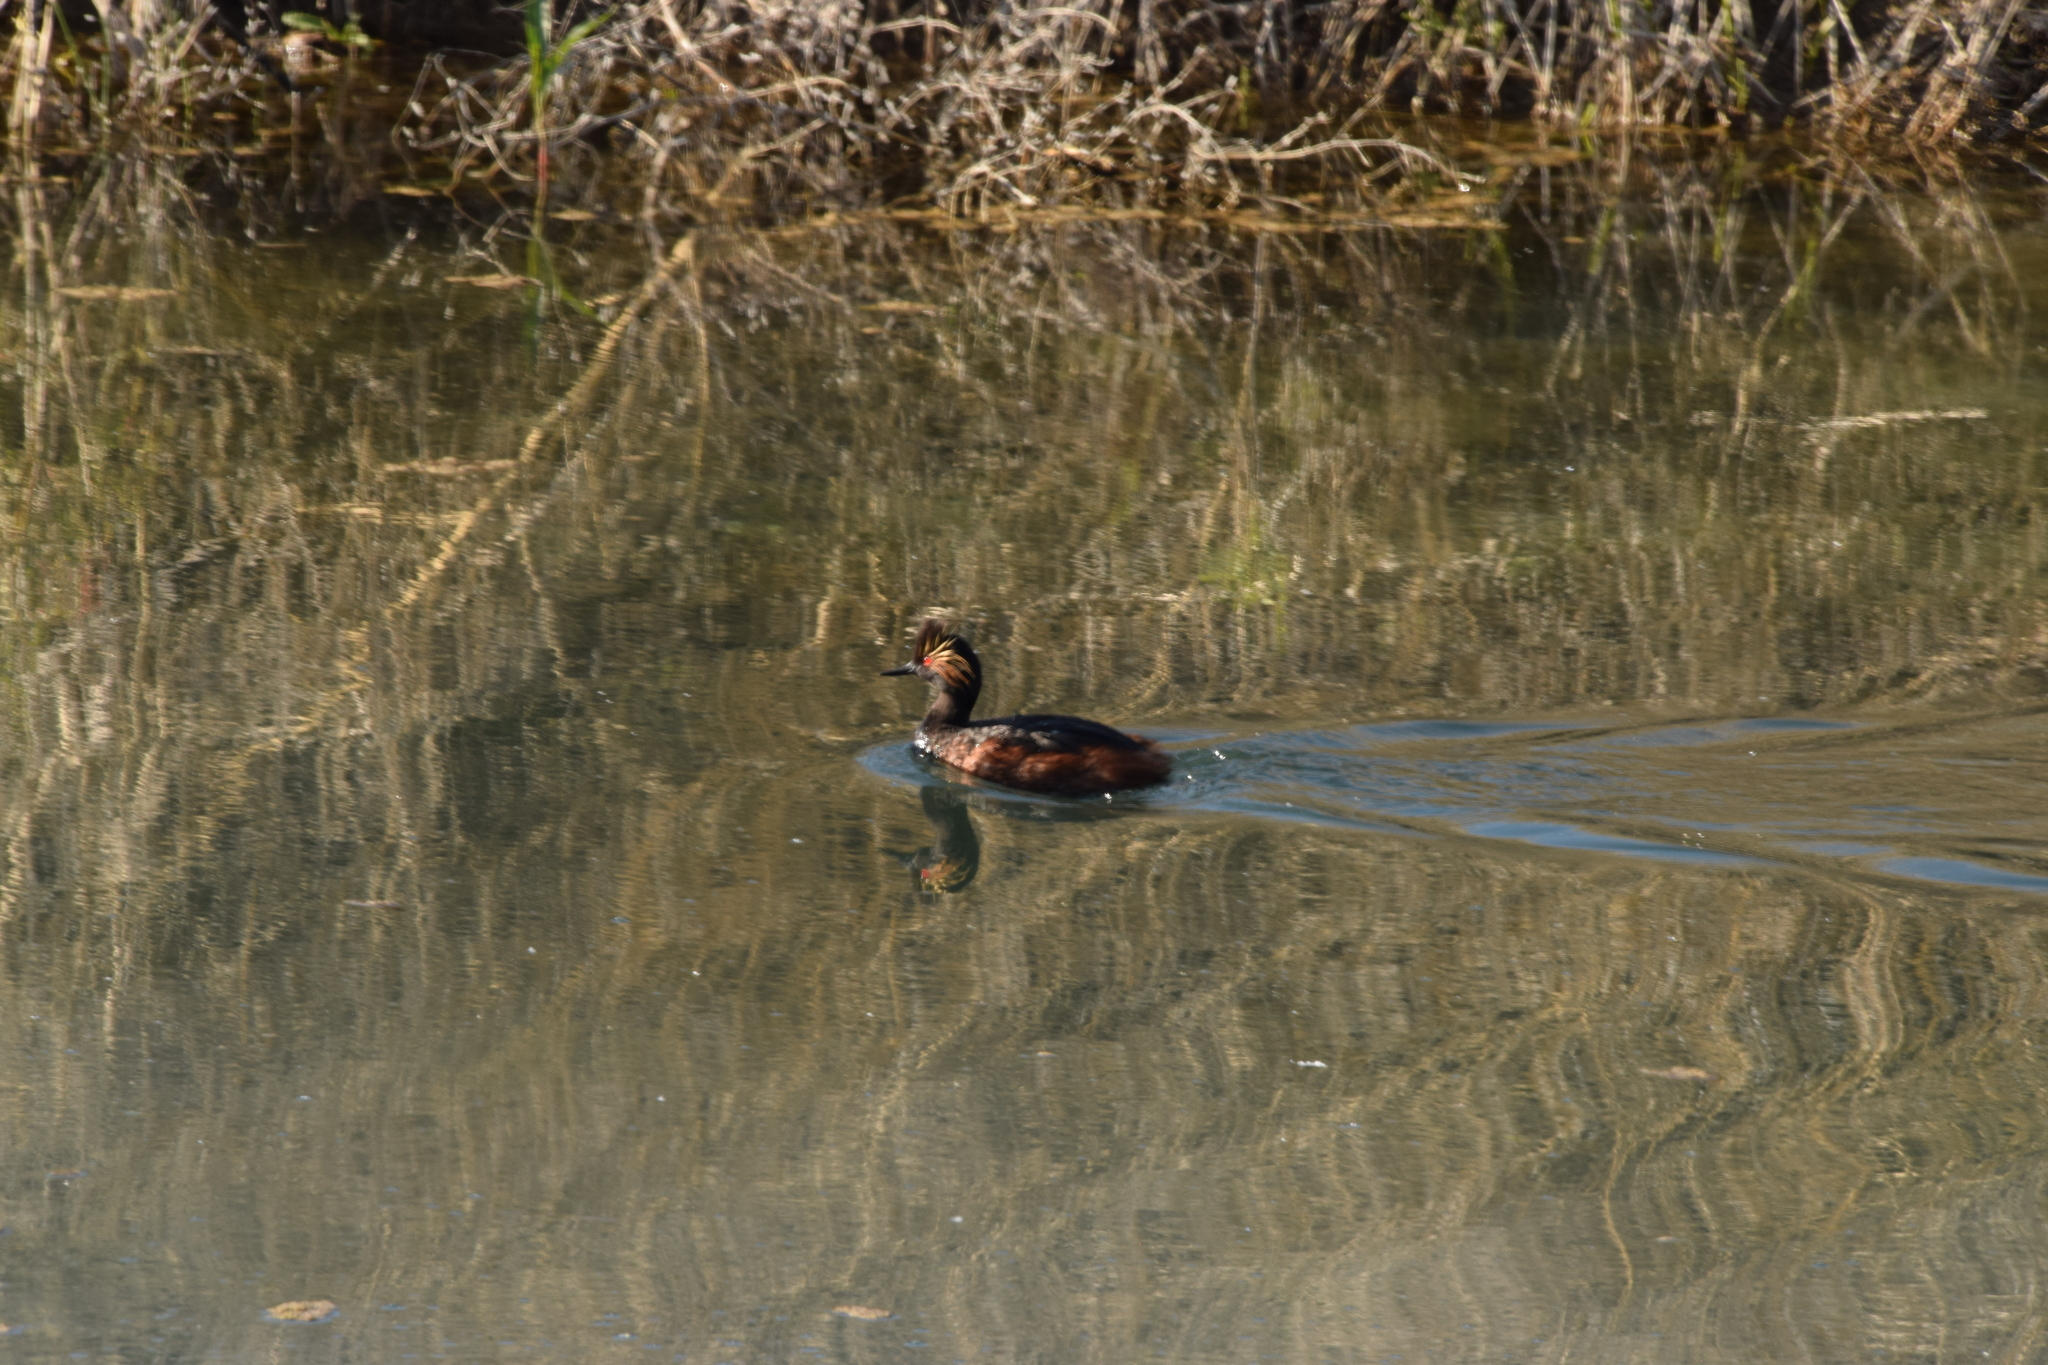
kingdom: Animalia
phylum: Chordata
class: Aves
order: Podicipediformes
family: Podicipedidae
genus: Podiceps
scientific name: Podiceps nigricollis
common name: Black-necked grebe
